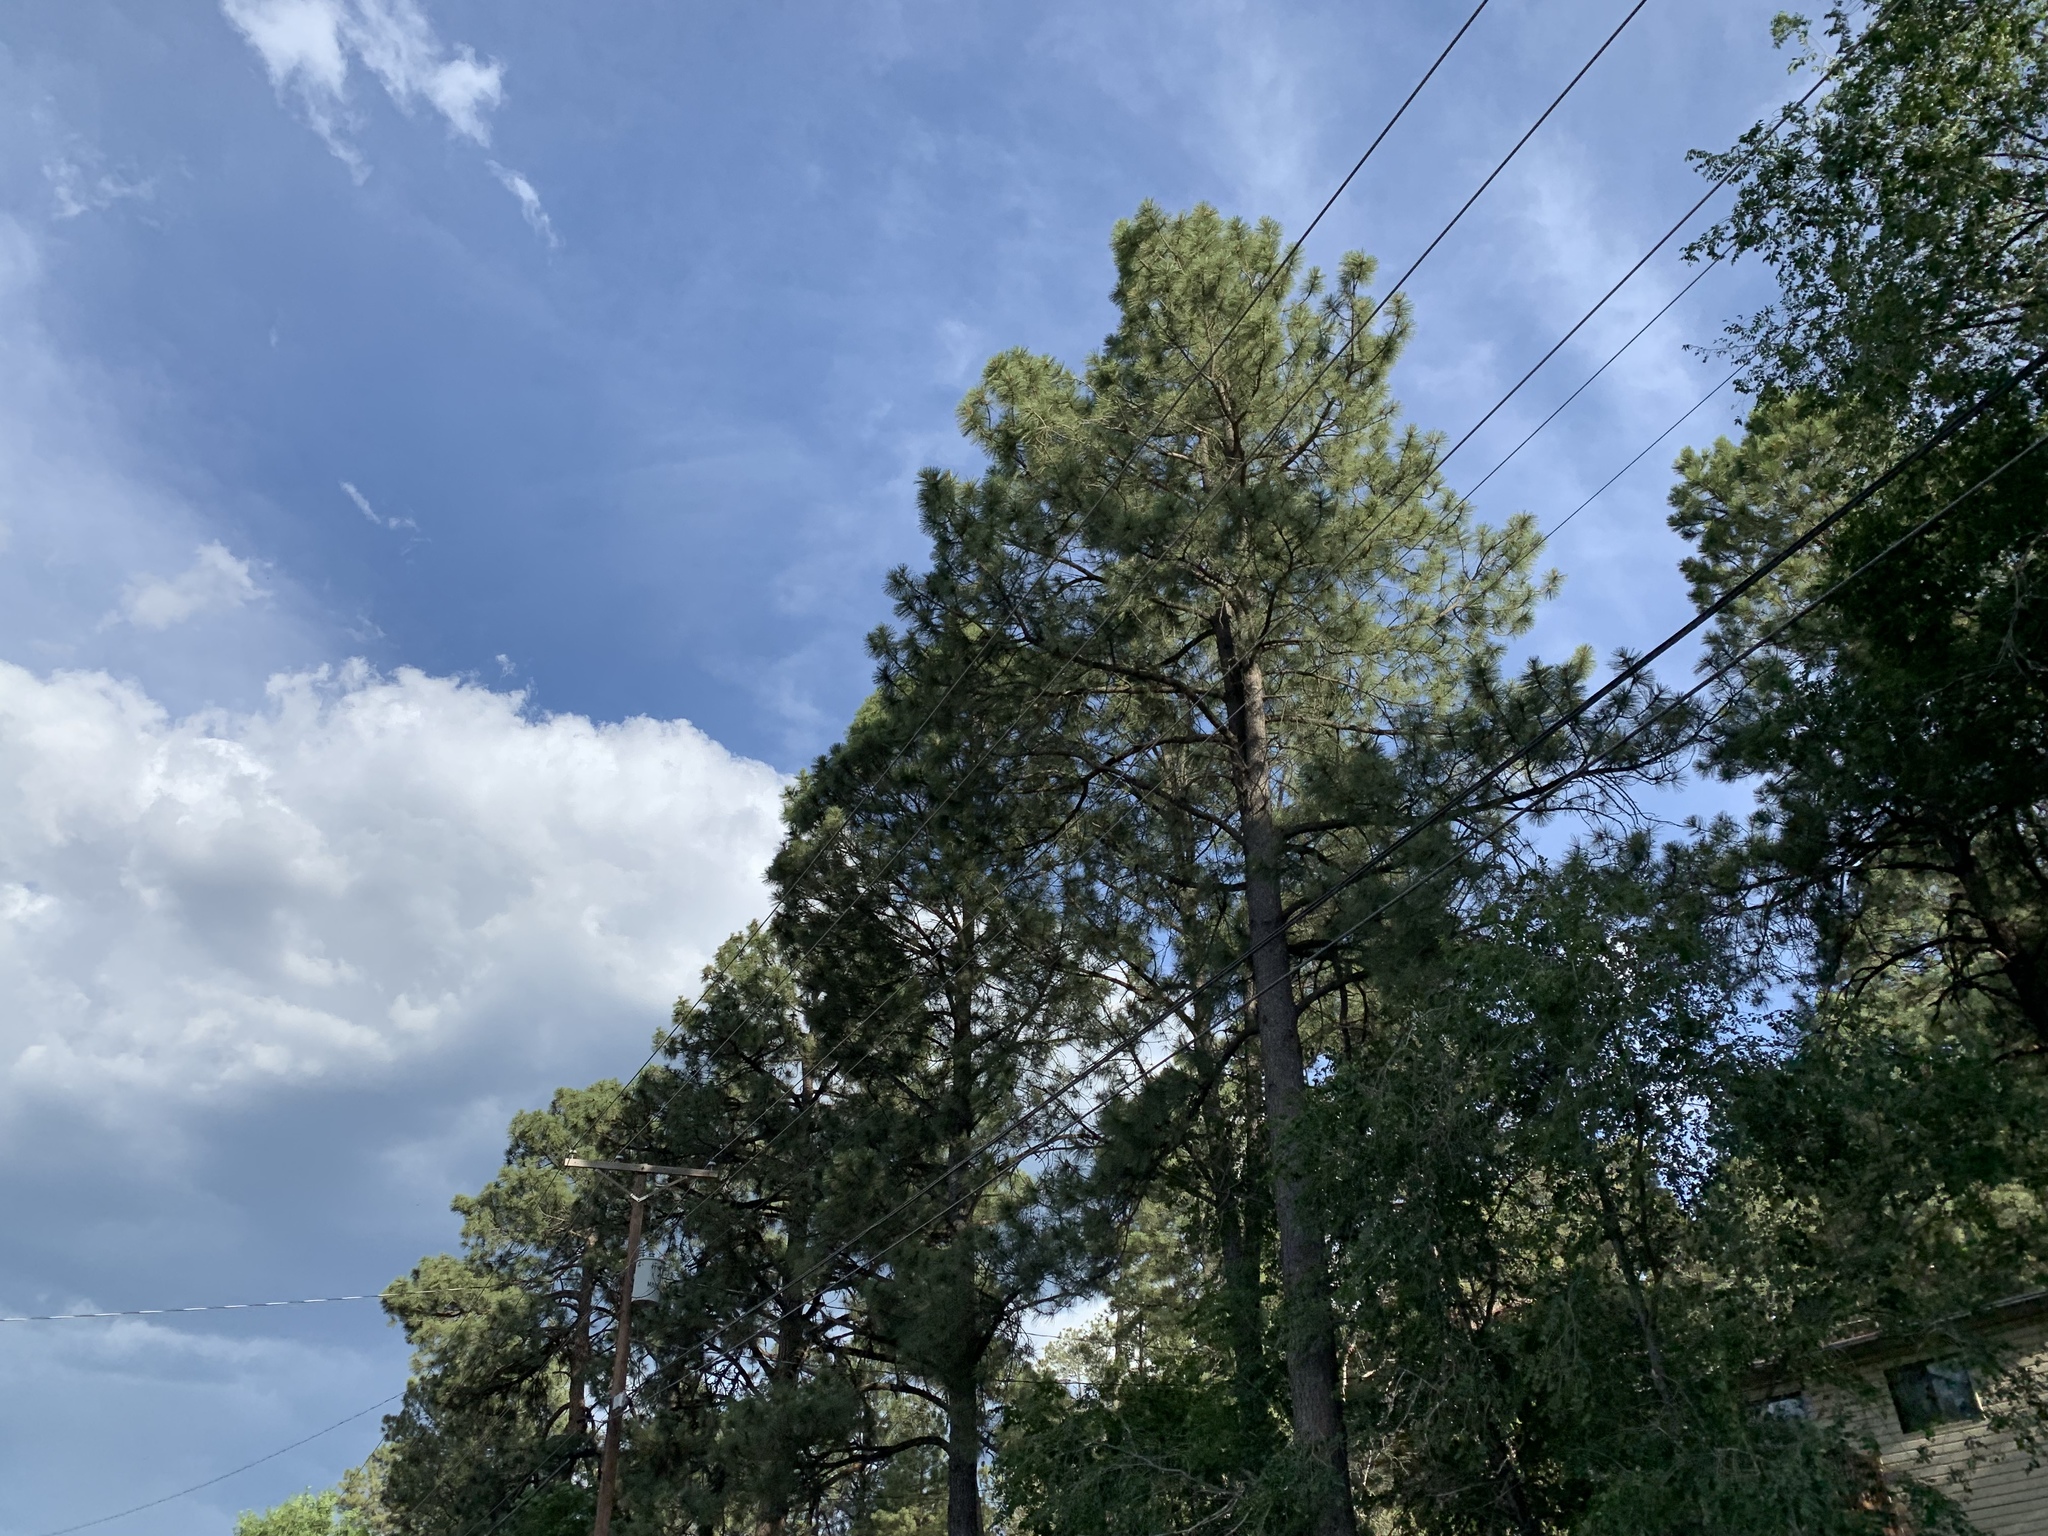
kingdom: Plantae
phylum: Tracheophyta
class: Pinopsida
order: Pinales
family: Pinaceae
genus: Pinus
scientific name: Pinus ponderosa
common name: Western yellow-pine
